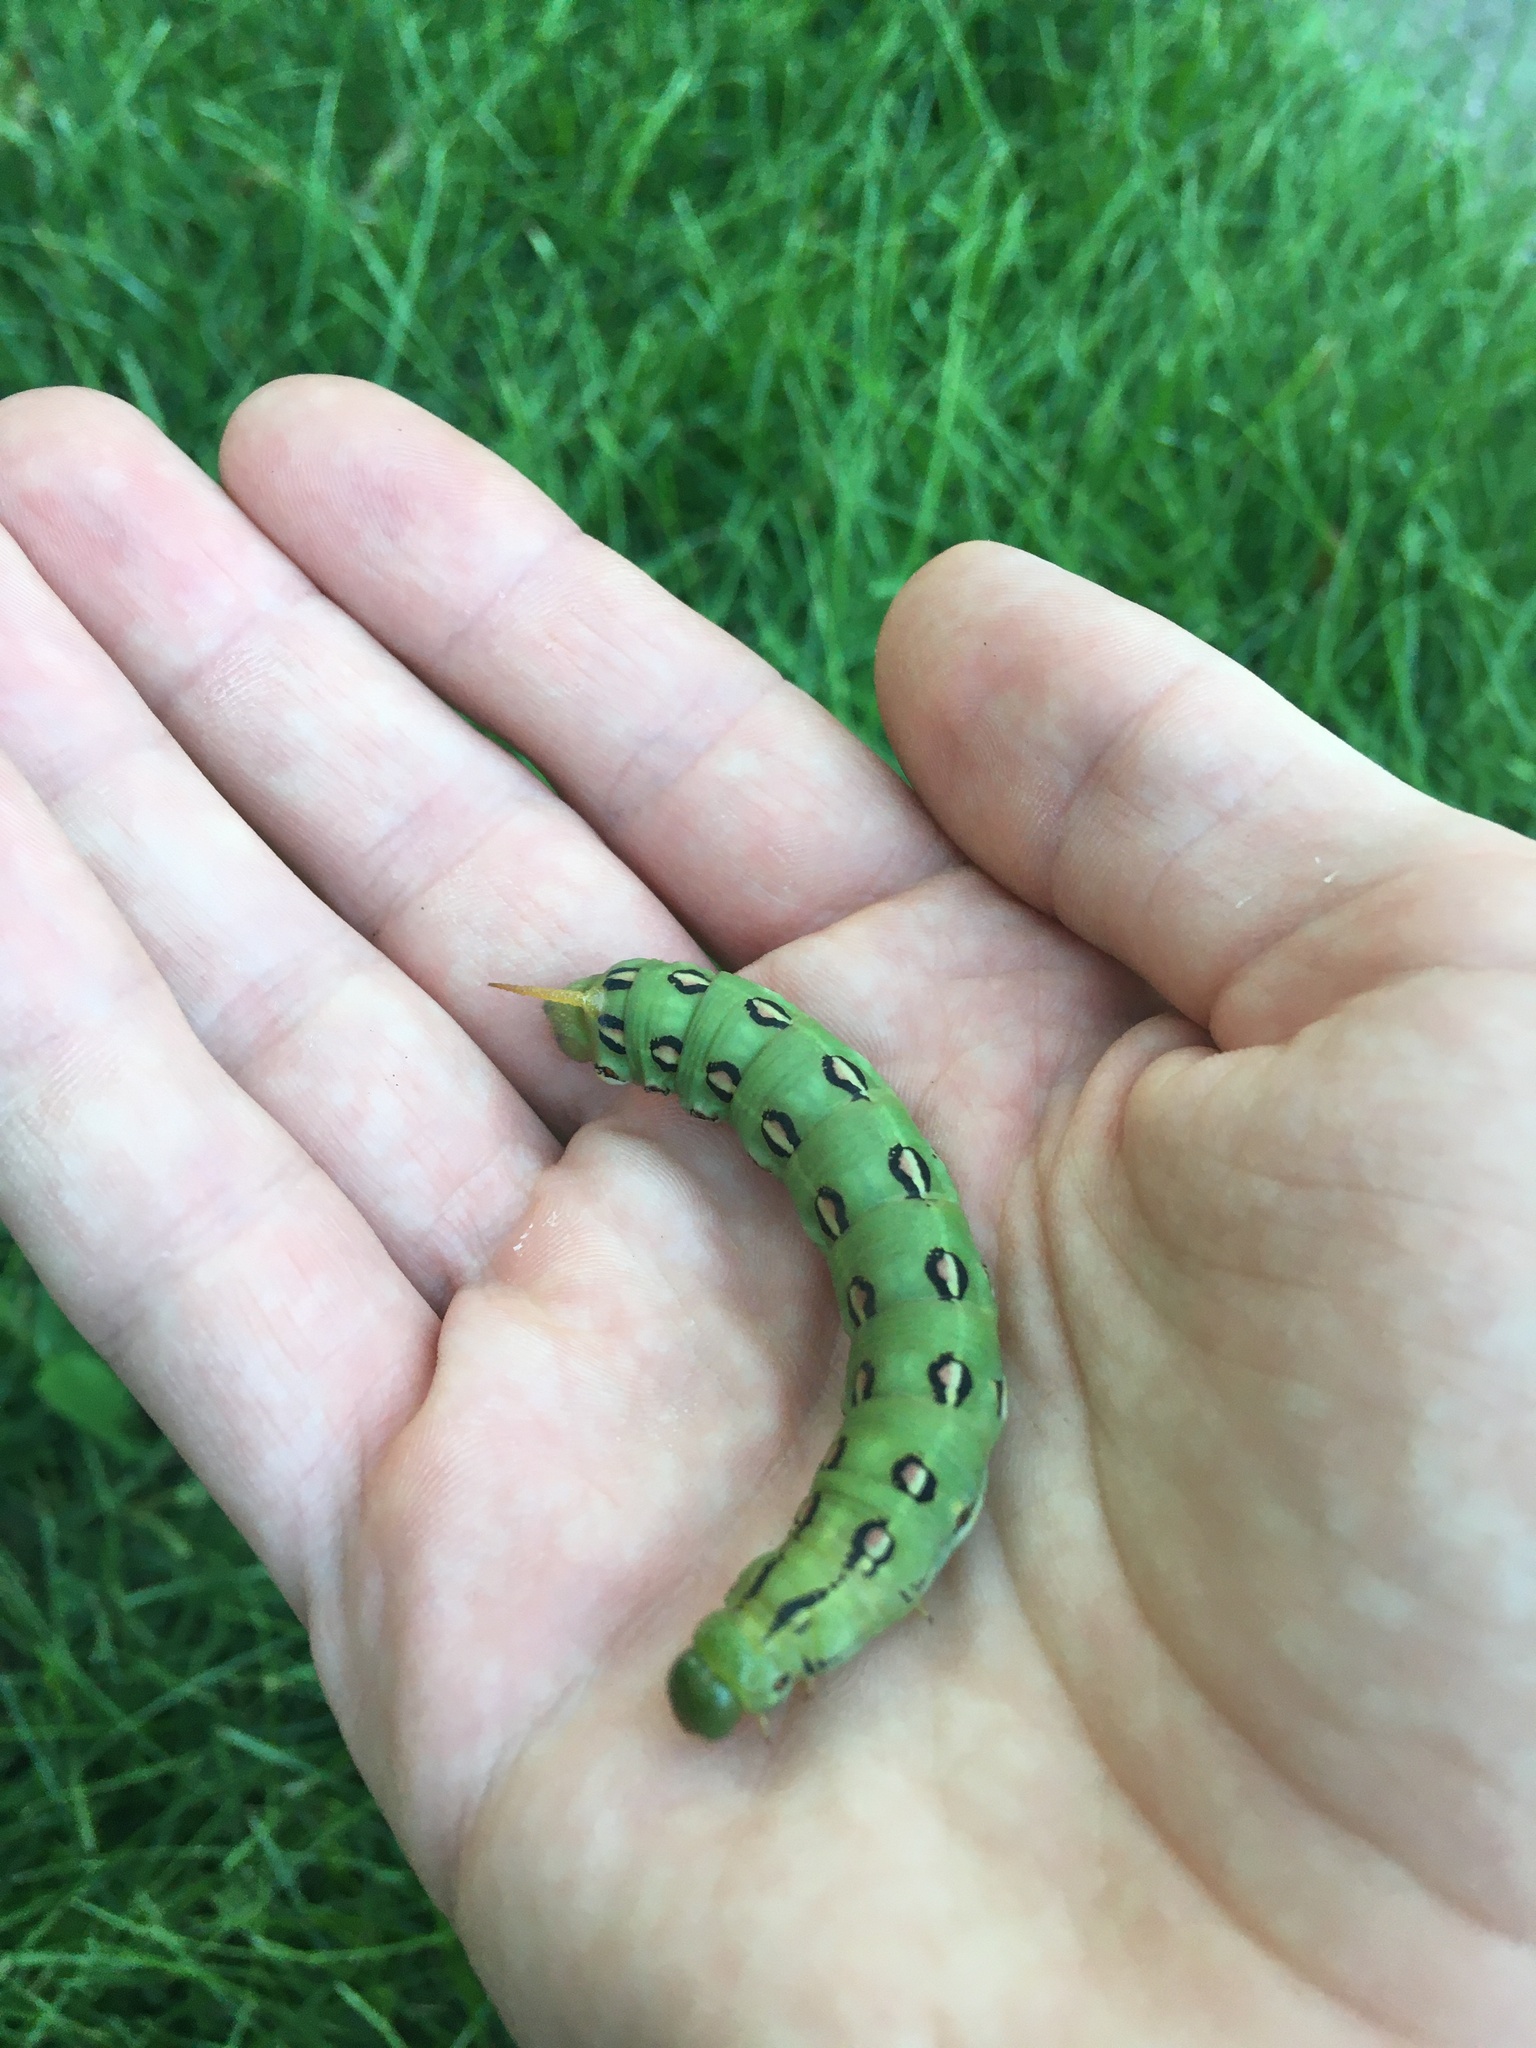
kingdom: Animalia
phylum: Arthropoda
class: Insecta
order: Lepidoptera
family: Sphingidae
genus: Hyles
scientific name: Hyles lineata
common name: White-lined sphinx
